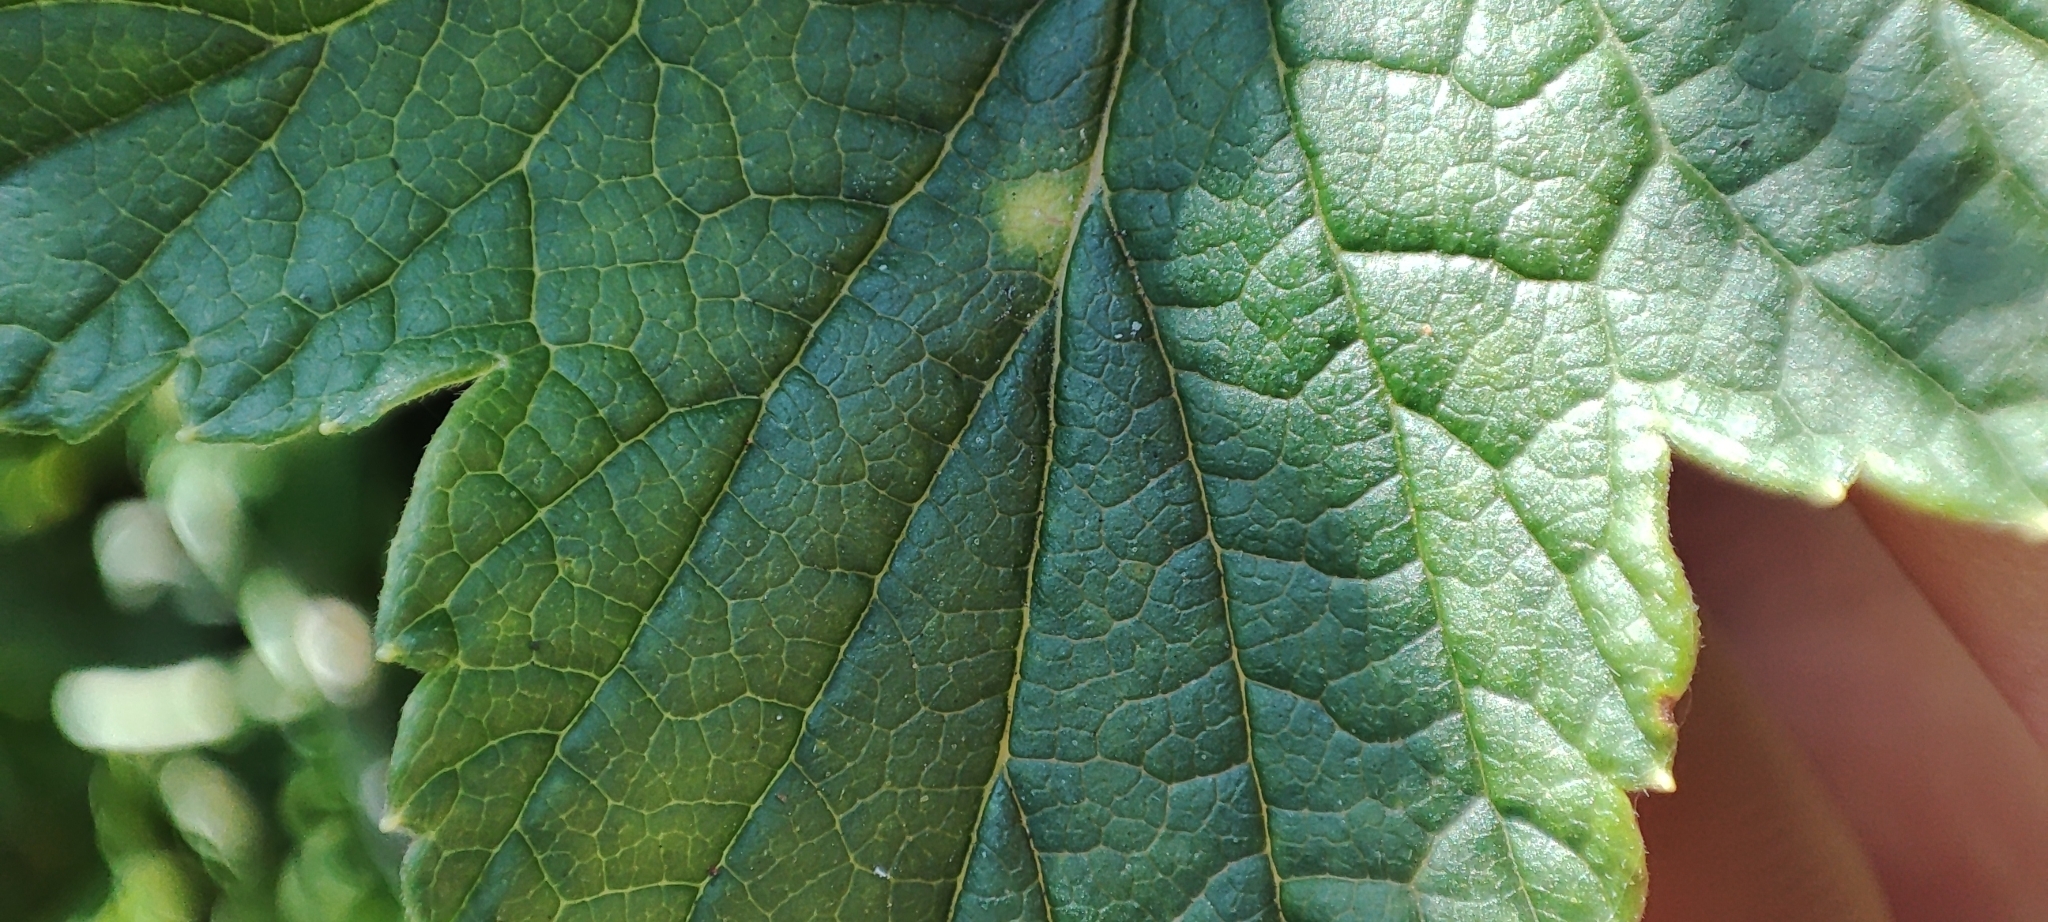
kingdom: Plantae
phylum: Tracheophyta
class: Magnoliopsida
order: Saxifragales
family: Grossulariaceae
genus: Ribes
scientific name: Ribes nigrum
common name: Black currant
